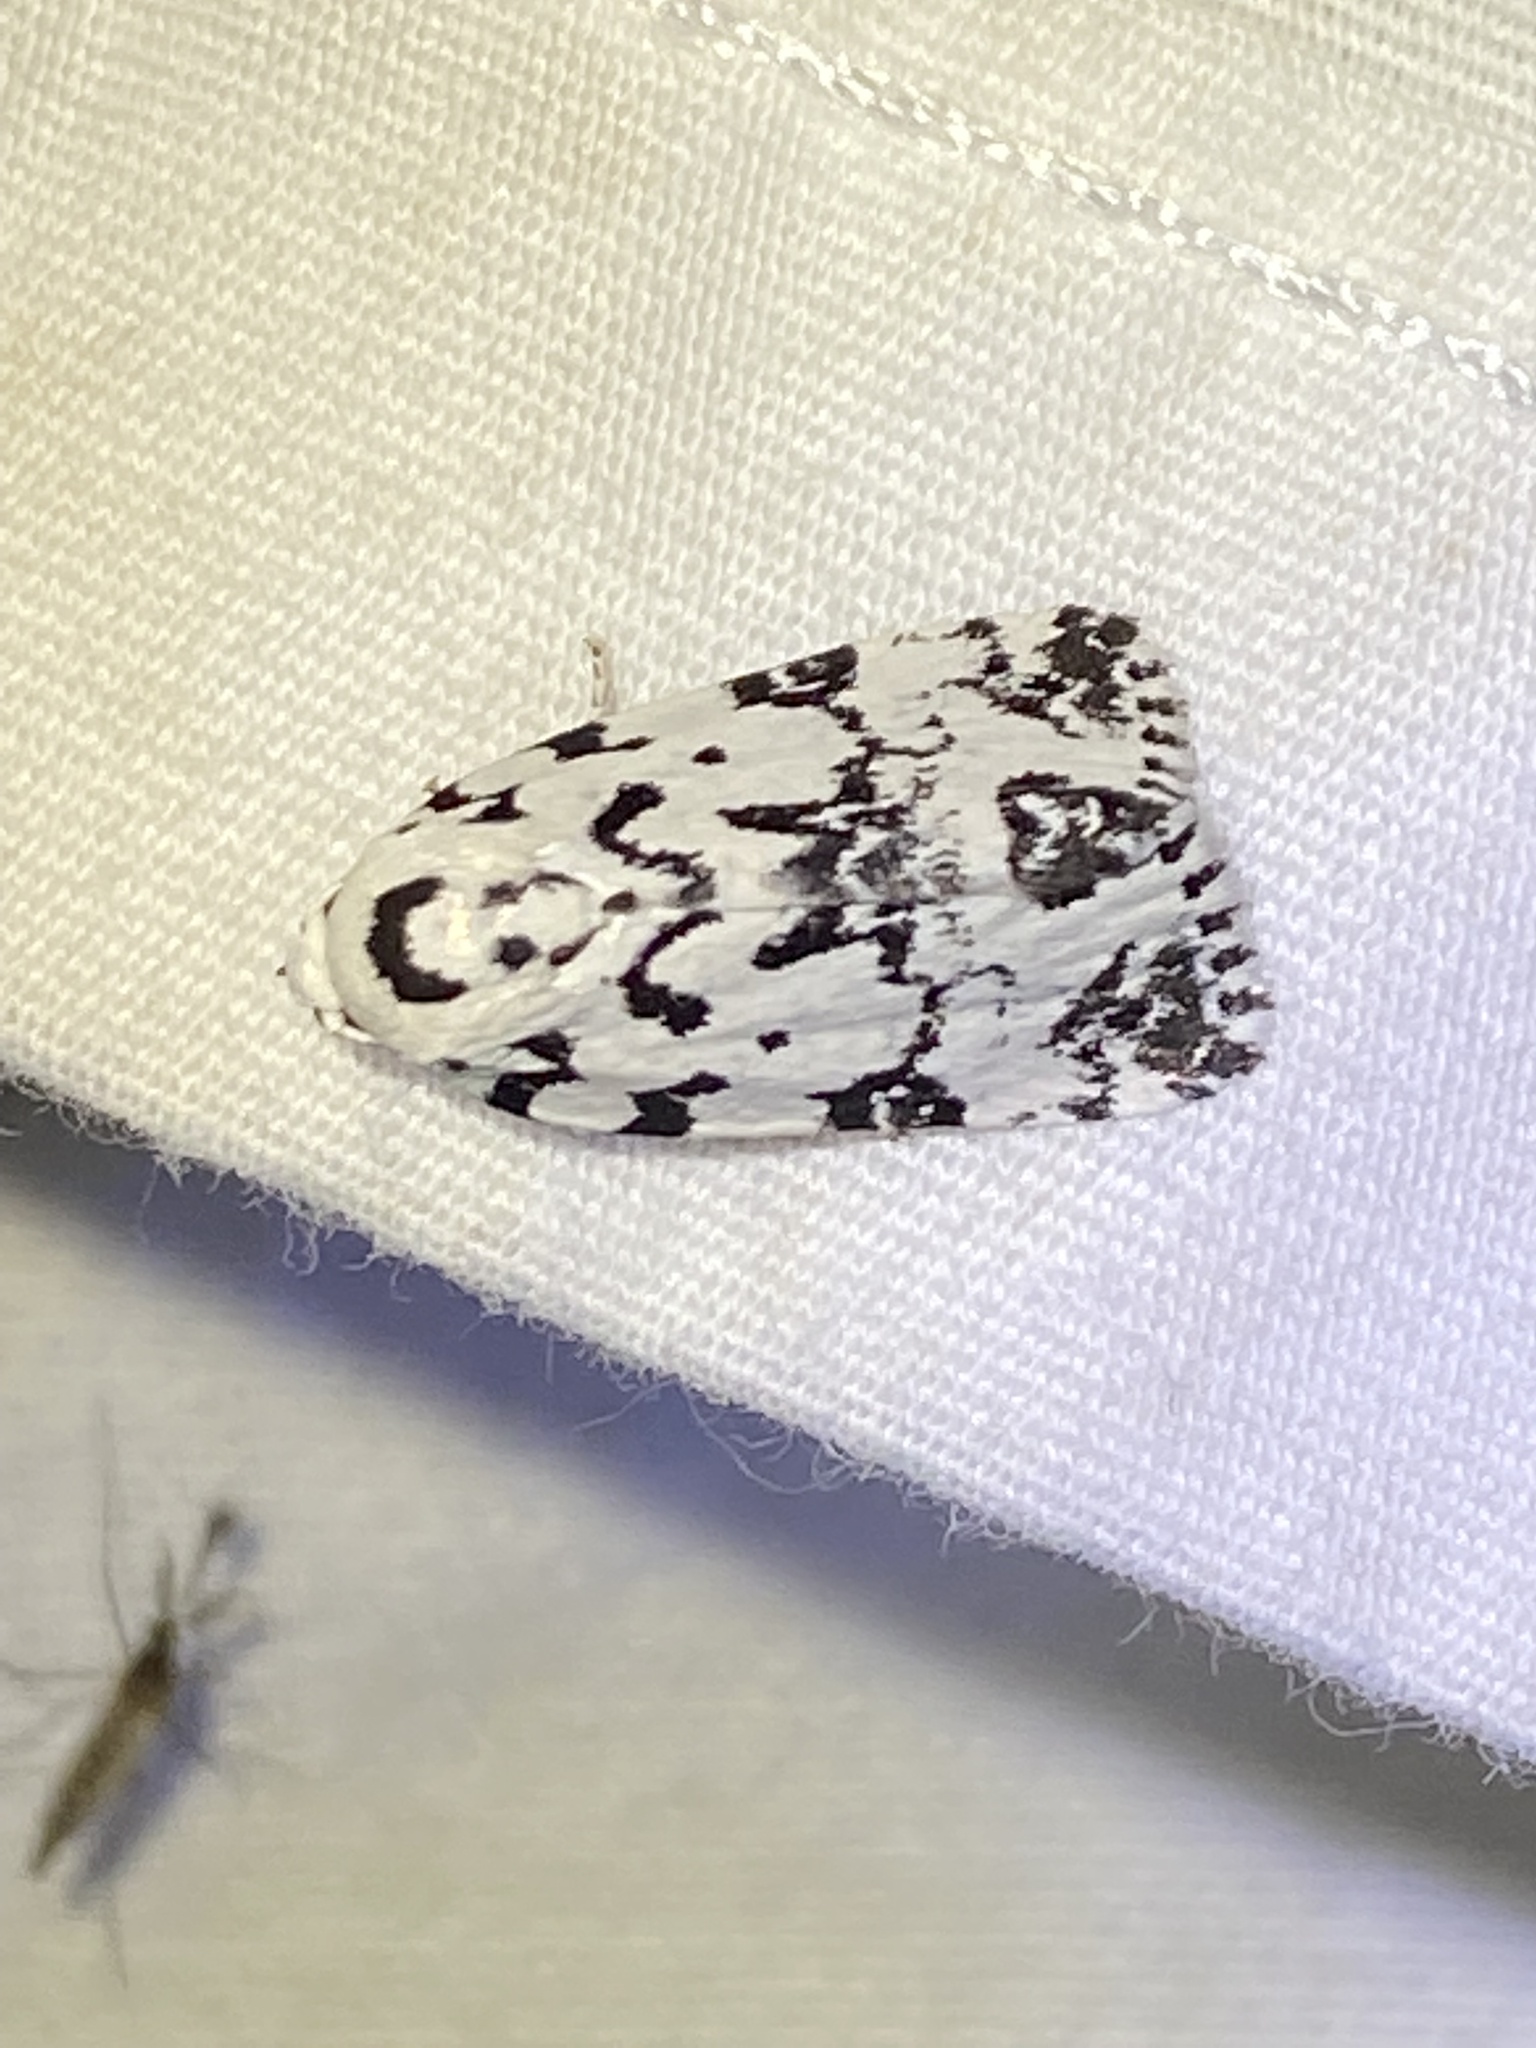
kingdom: Animalia
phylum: Arthropoda
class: Insecta
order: Lepidoptera
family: Noctuidae
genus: Polygrammate
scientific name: Polygrammate hebraeicum
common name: Hebrew moth
